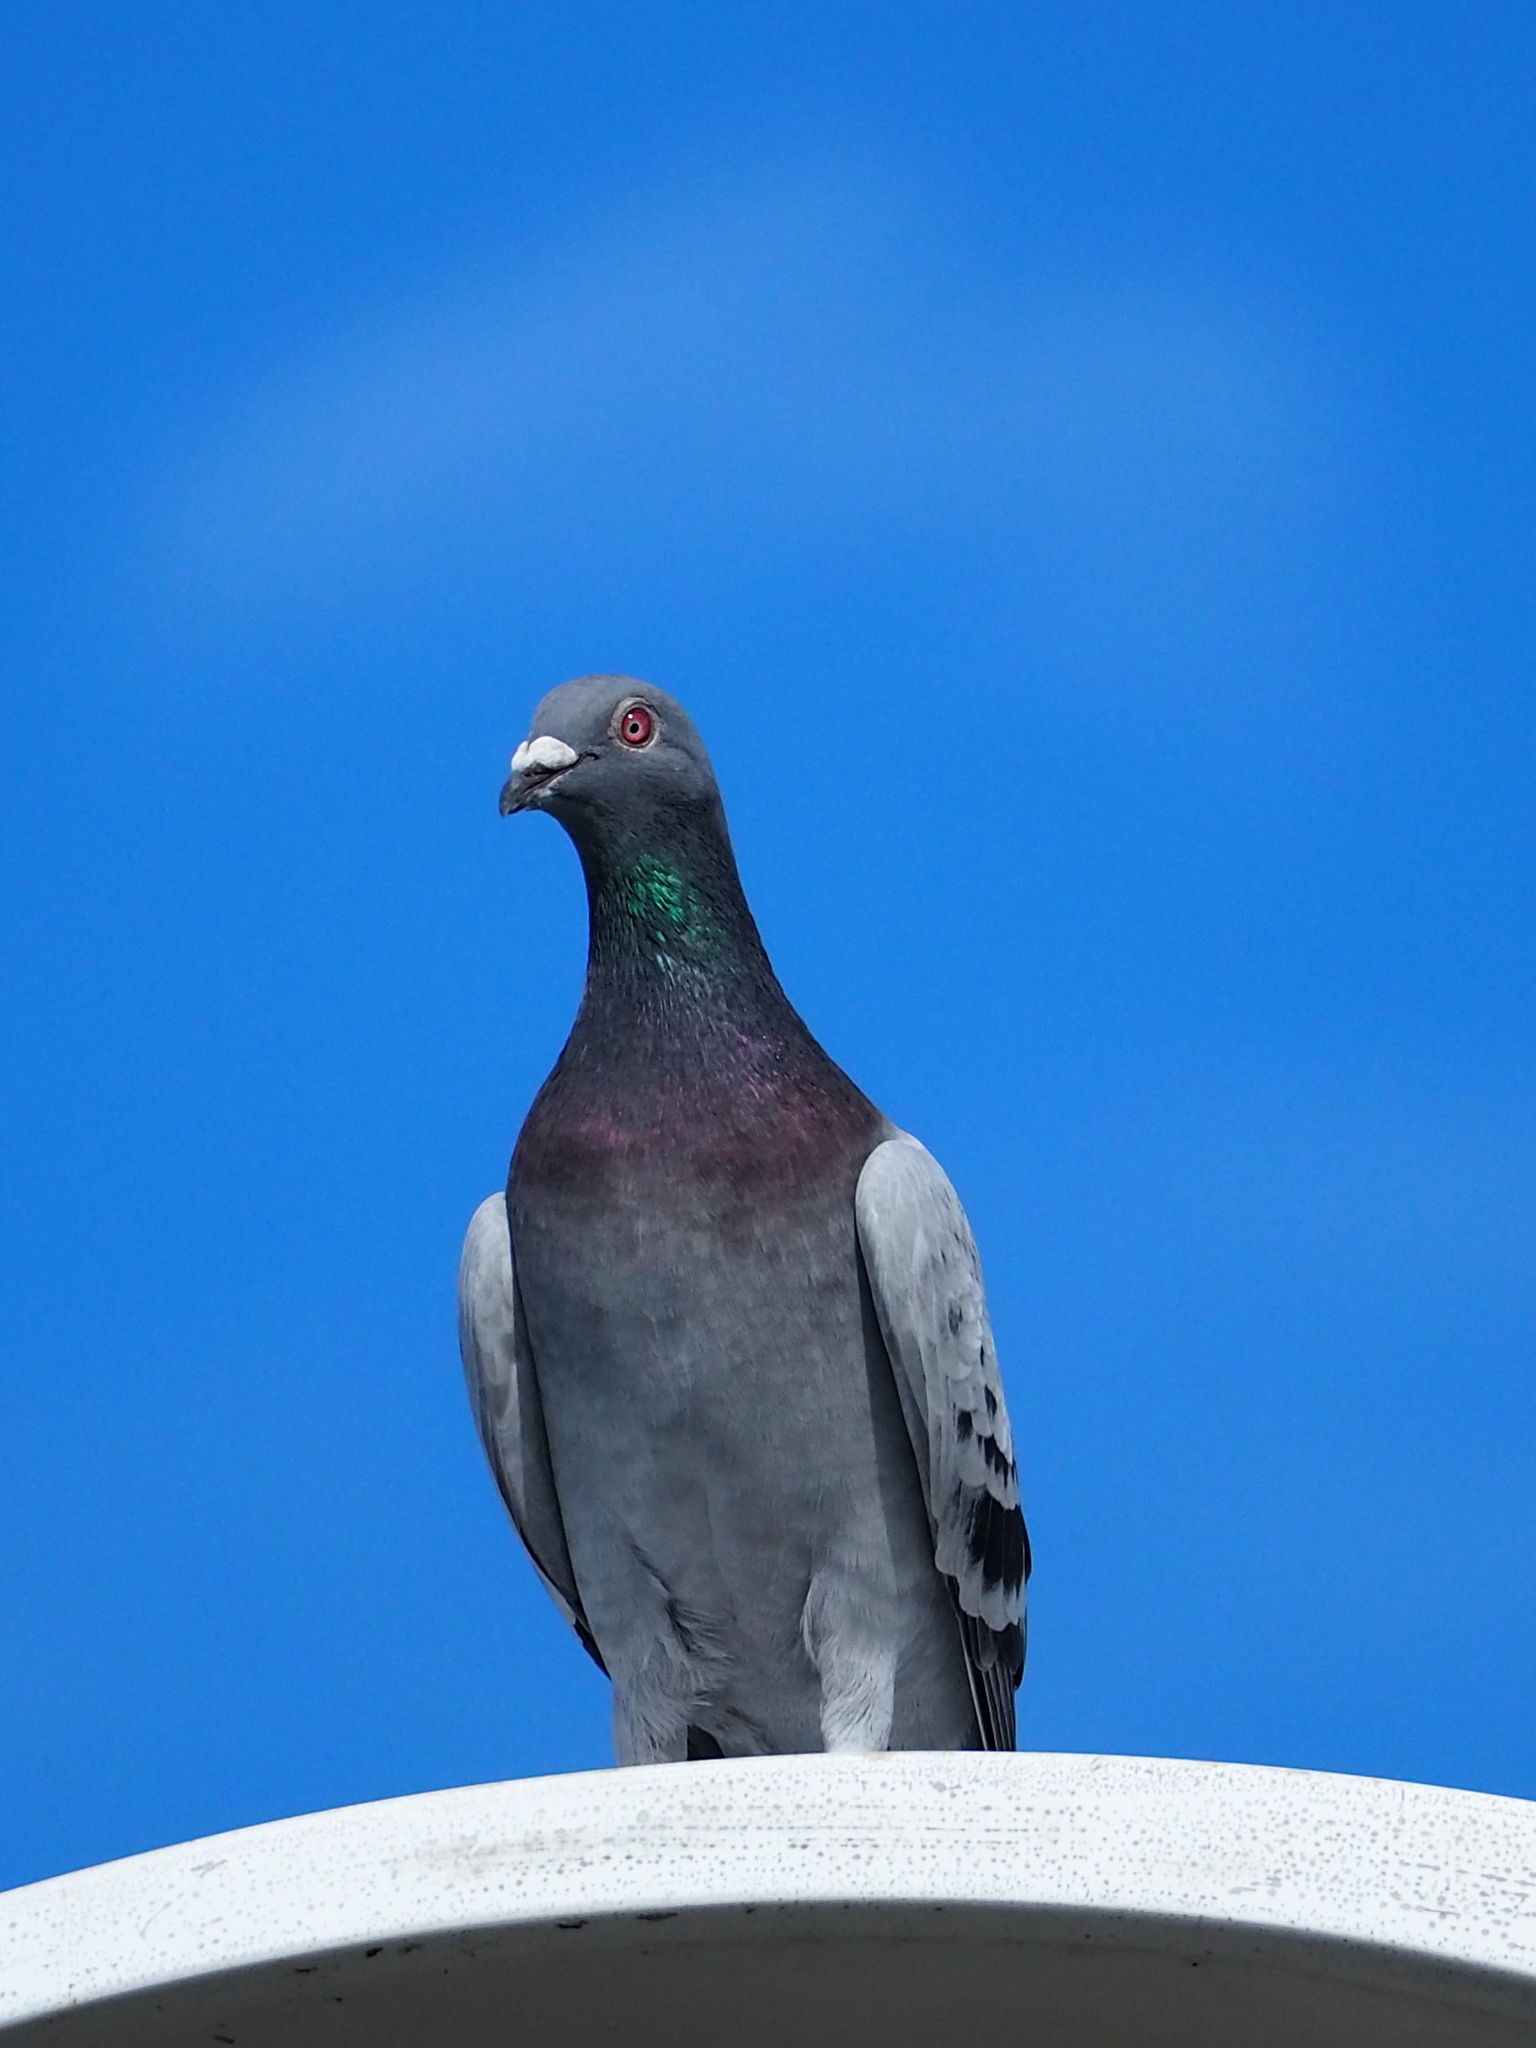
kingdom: Animalia
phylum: Chordata
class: Aves
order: Columbiformes
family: Columbidae
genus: Columba
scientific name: Columba livia
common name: Rock pigeon
